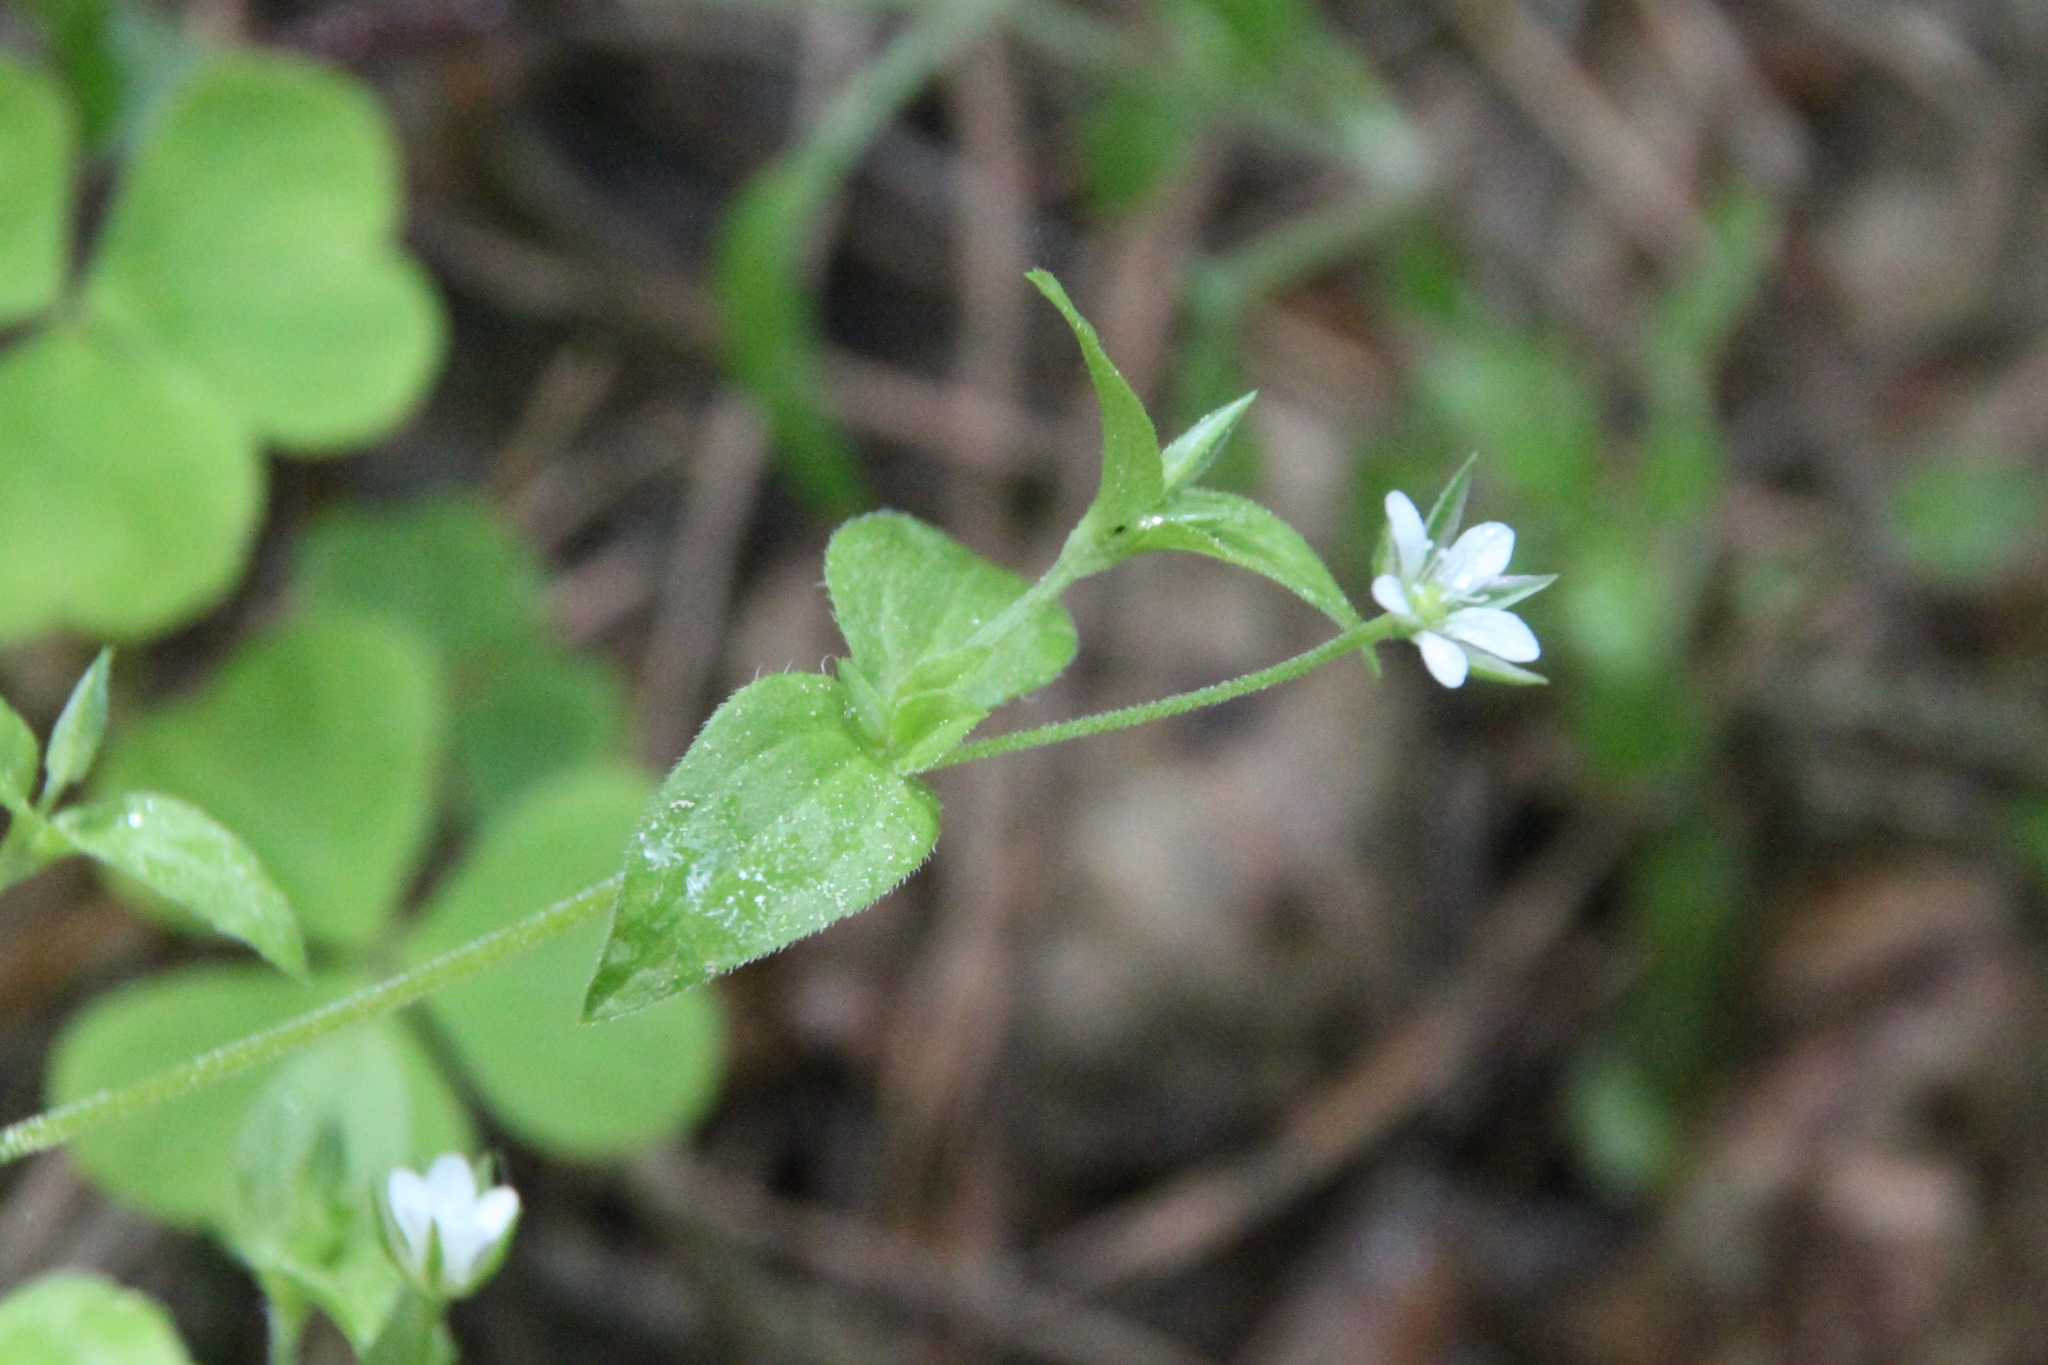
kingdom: Plantae
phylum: Tracheophyta
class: Magnoliopsida
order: Caryophyllales
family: Caryophyllaceae
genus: Moehringia
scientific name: Moehringia trinervia
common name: Three-nerved sandwort
